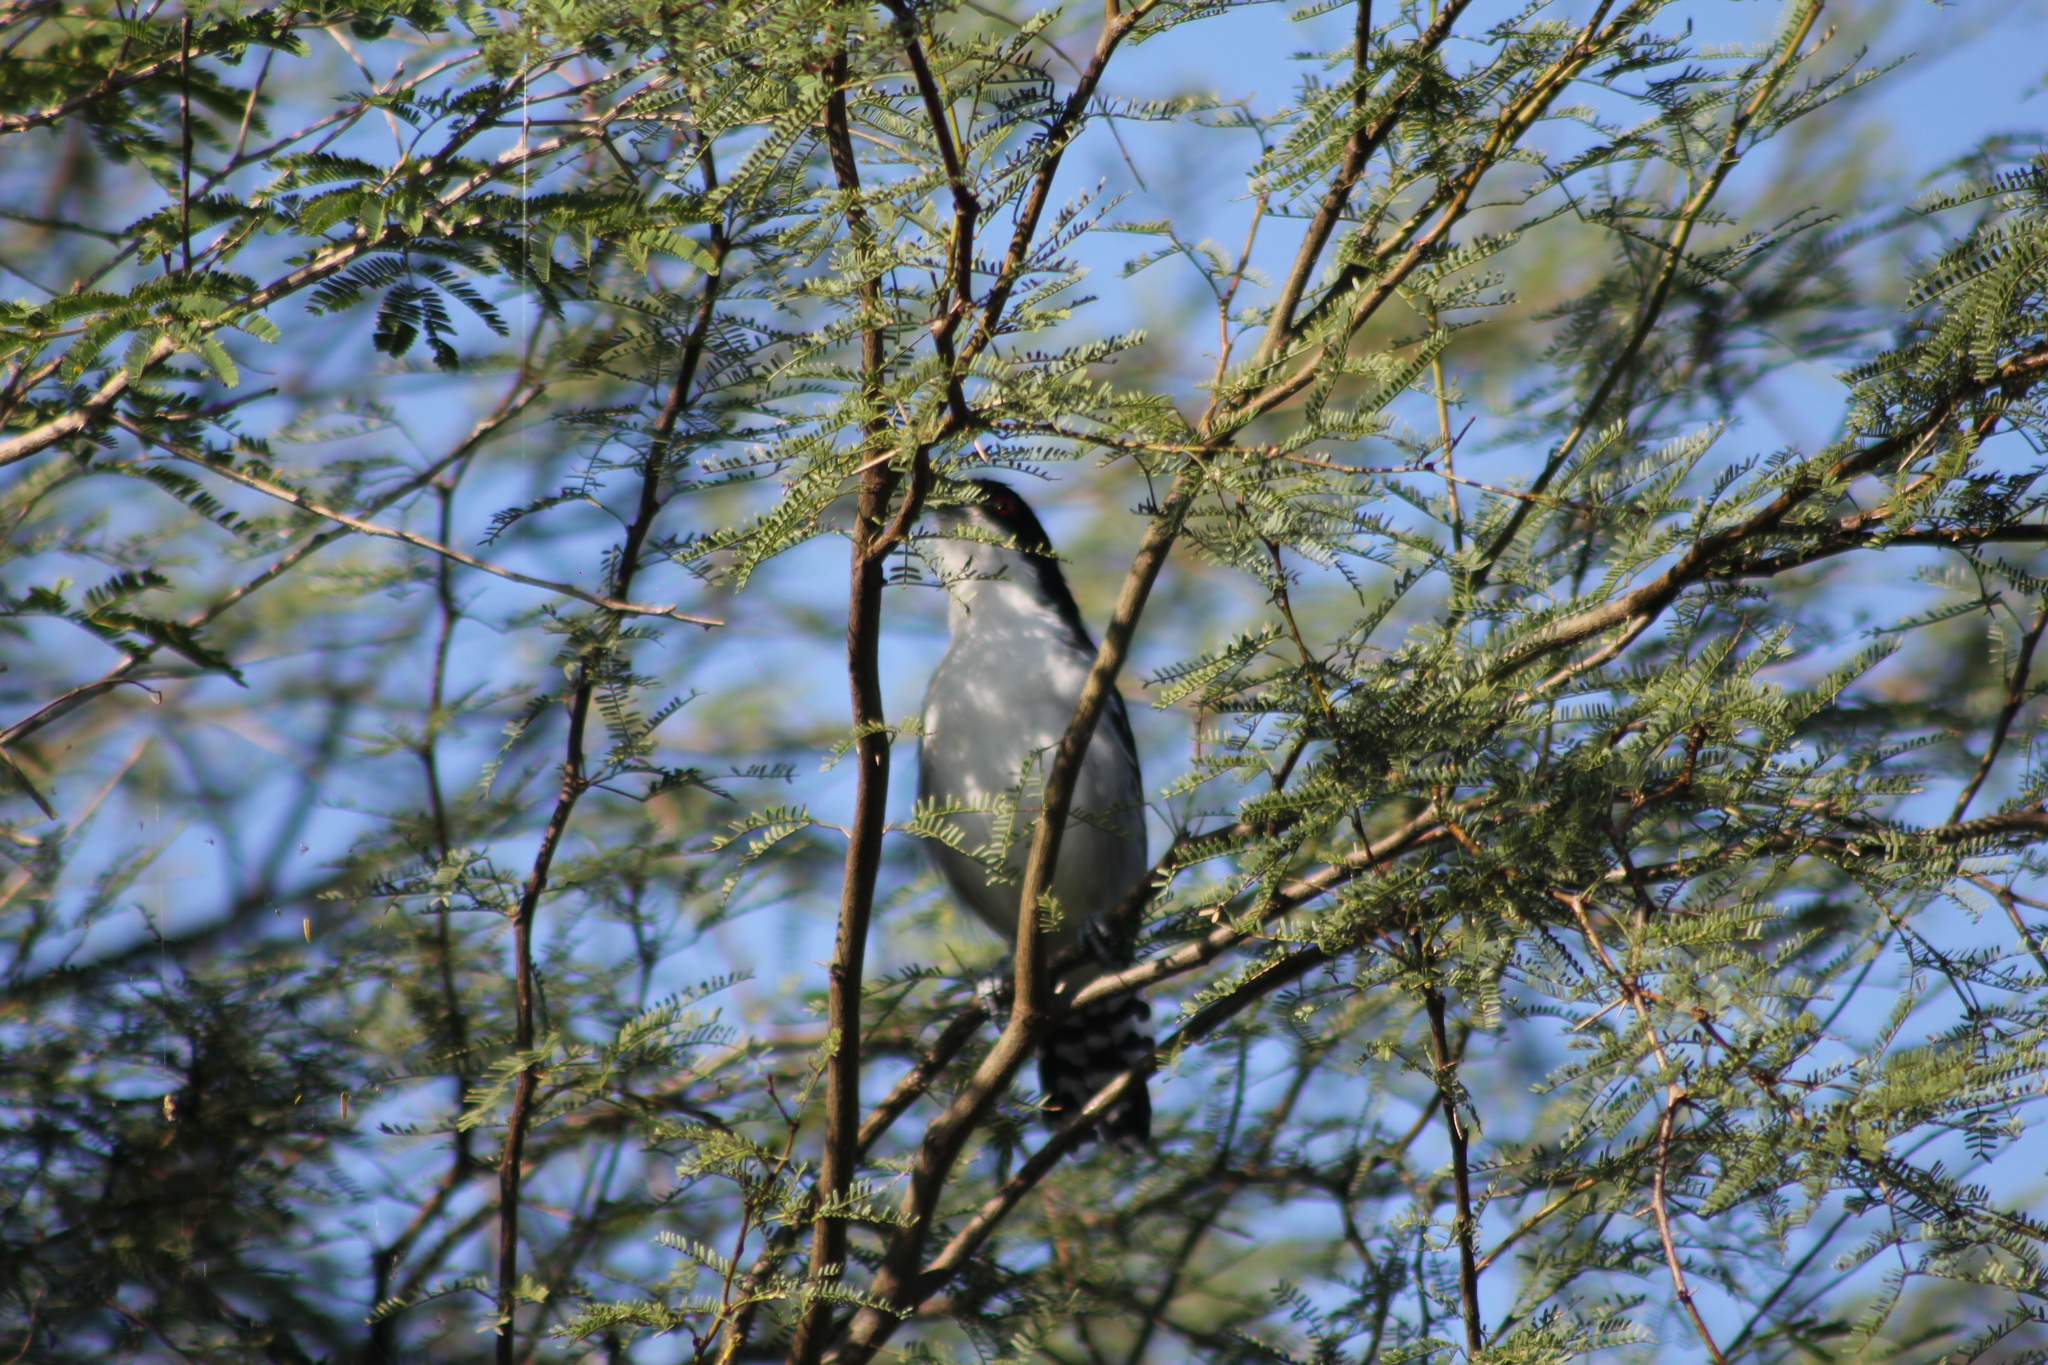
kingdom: Animalia
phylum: Chordata
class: Aves
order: Passeriformes
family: Thamnophilidae
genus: Taraba
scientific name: Taraba major
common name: Great antshrike
